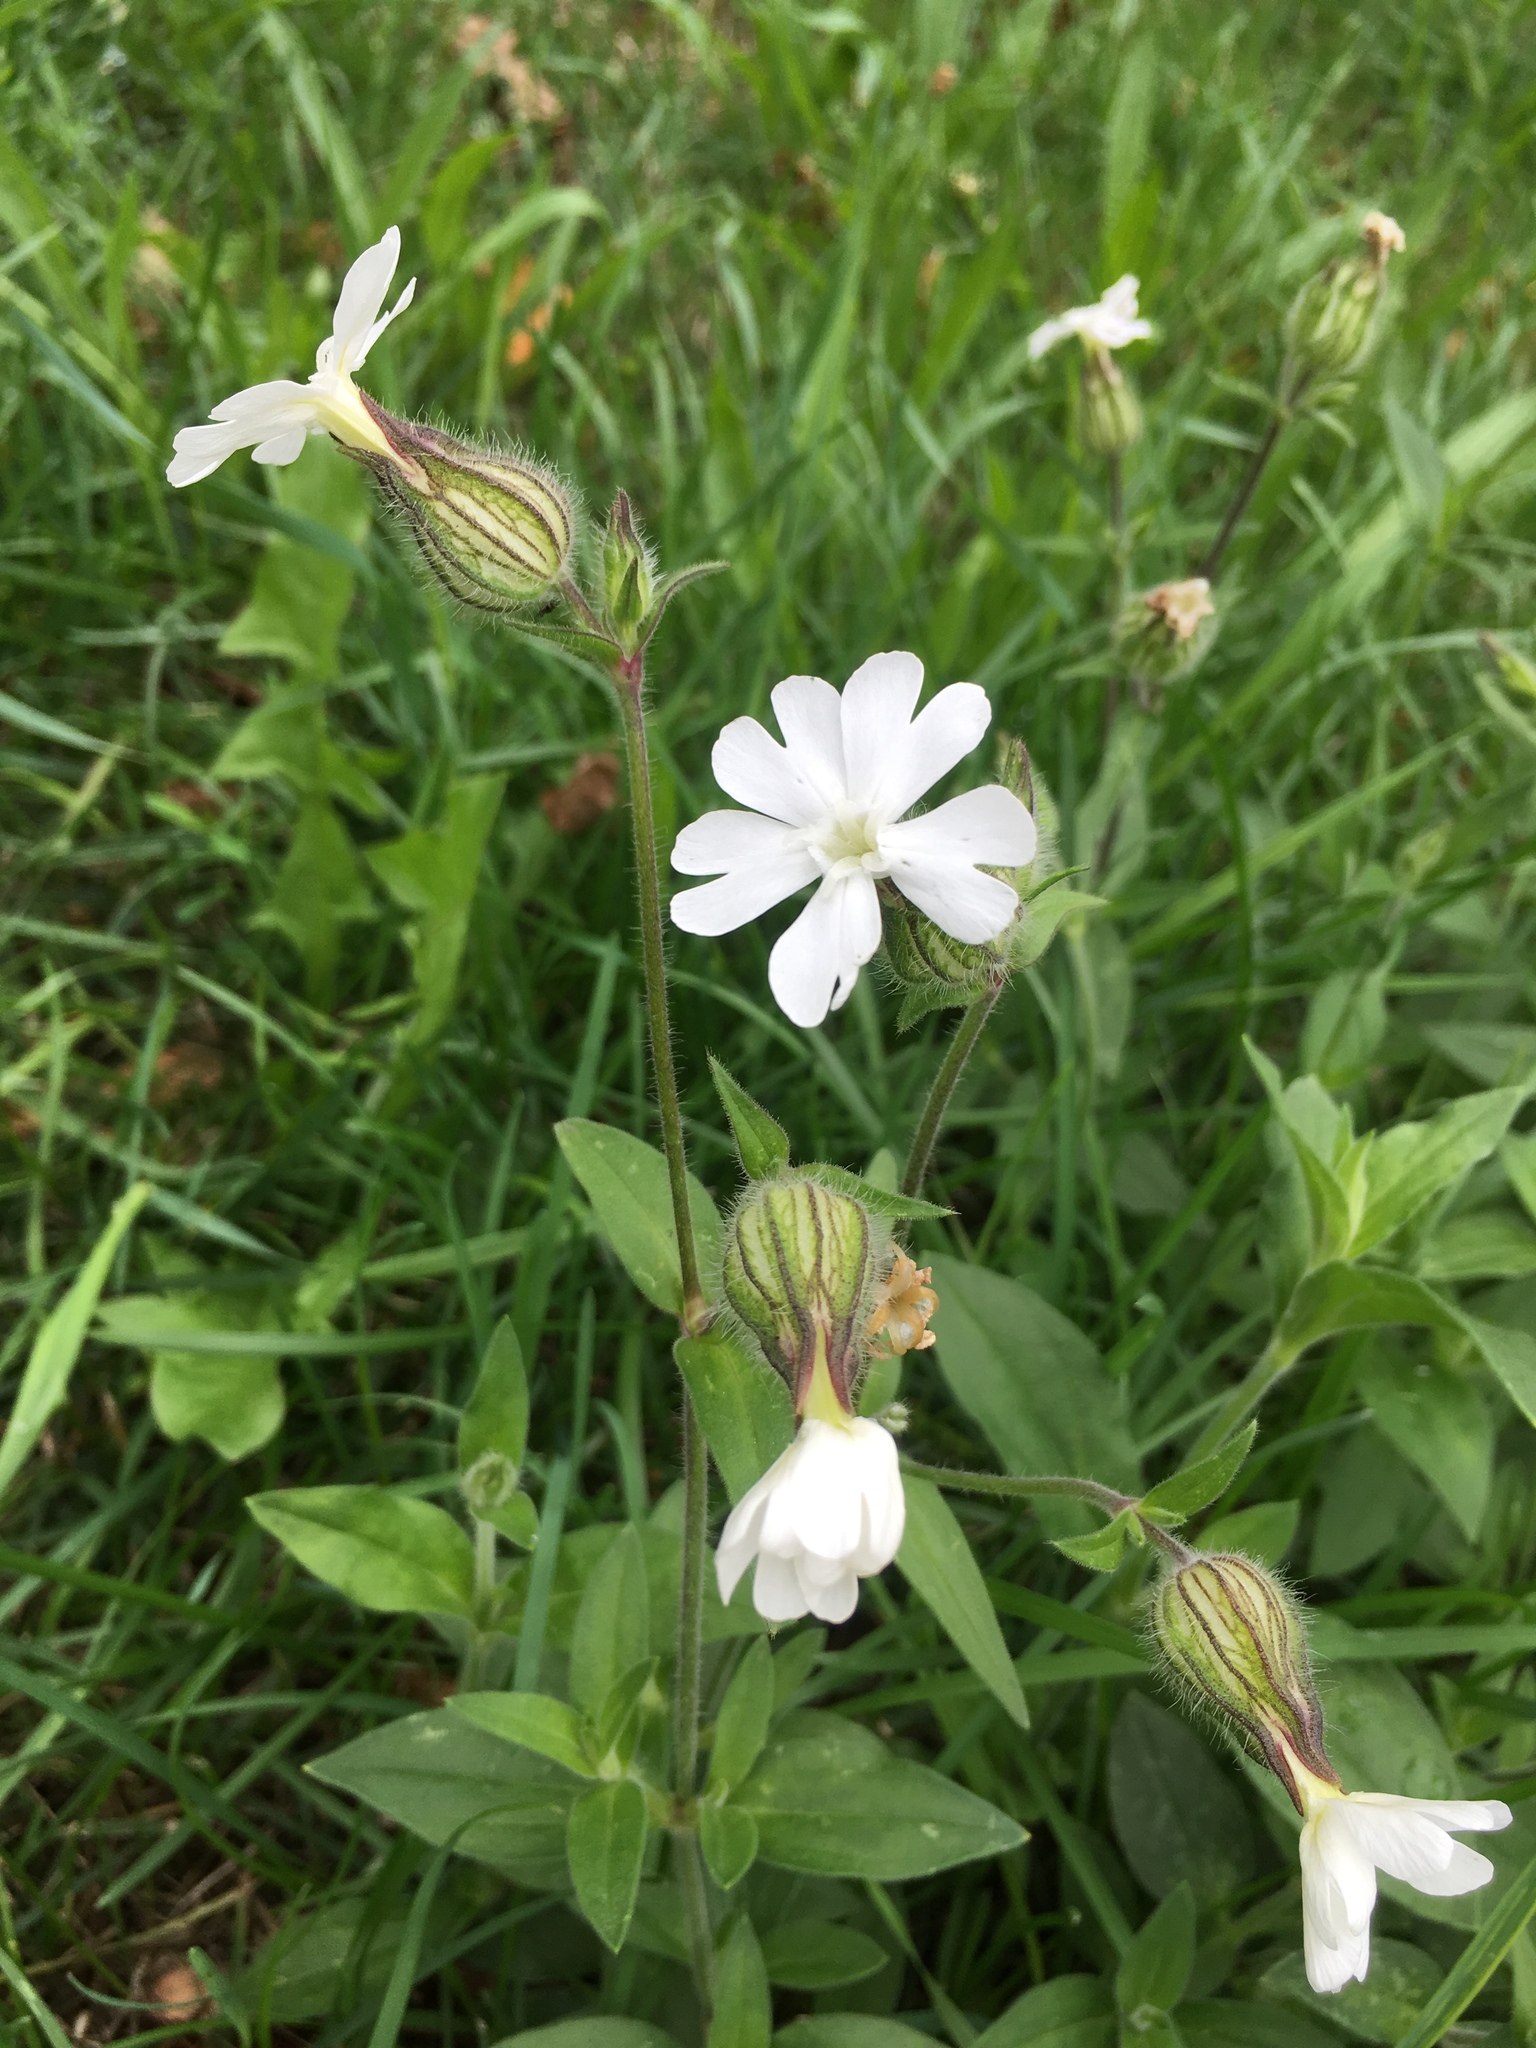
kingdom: Plantae
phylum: Tracheophyta
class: Magnoliopsida
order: Caryophyllales
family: Caryophyllaceae
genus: Silene
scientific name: Silene latifolia
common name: White campion
